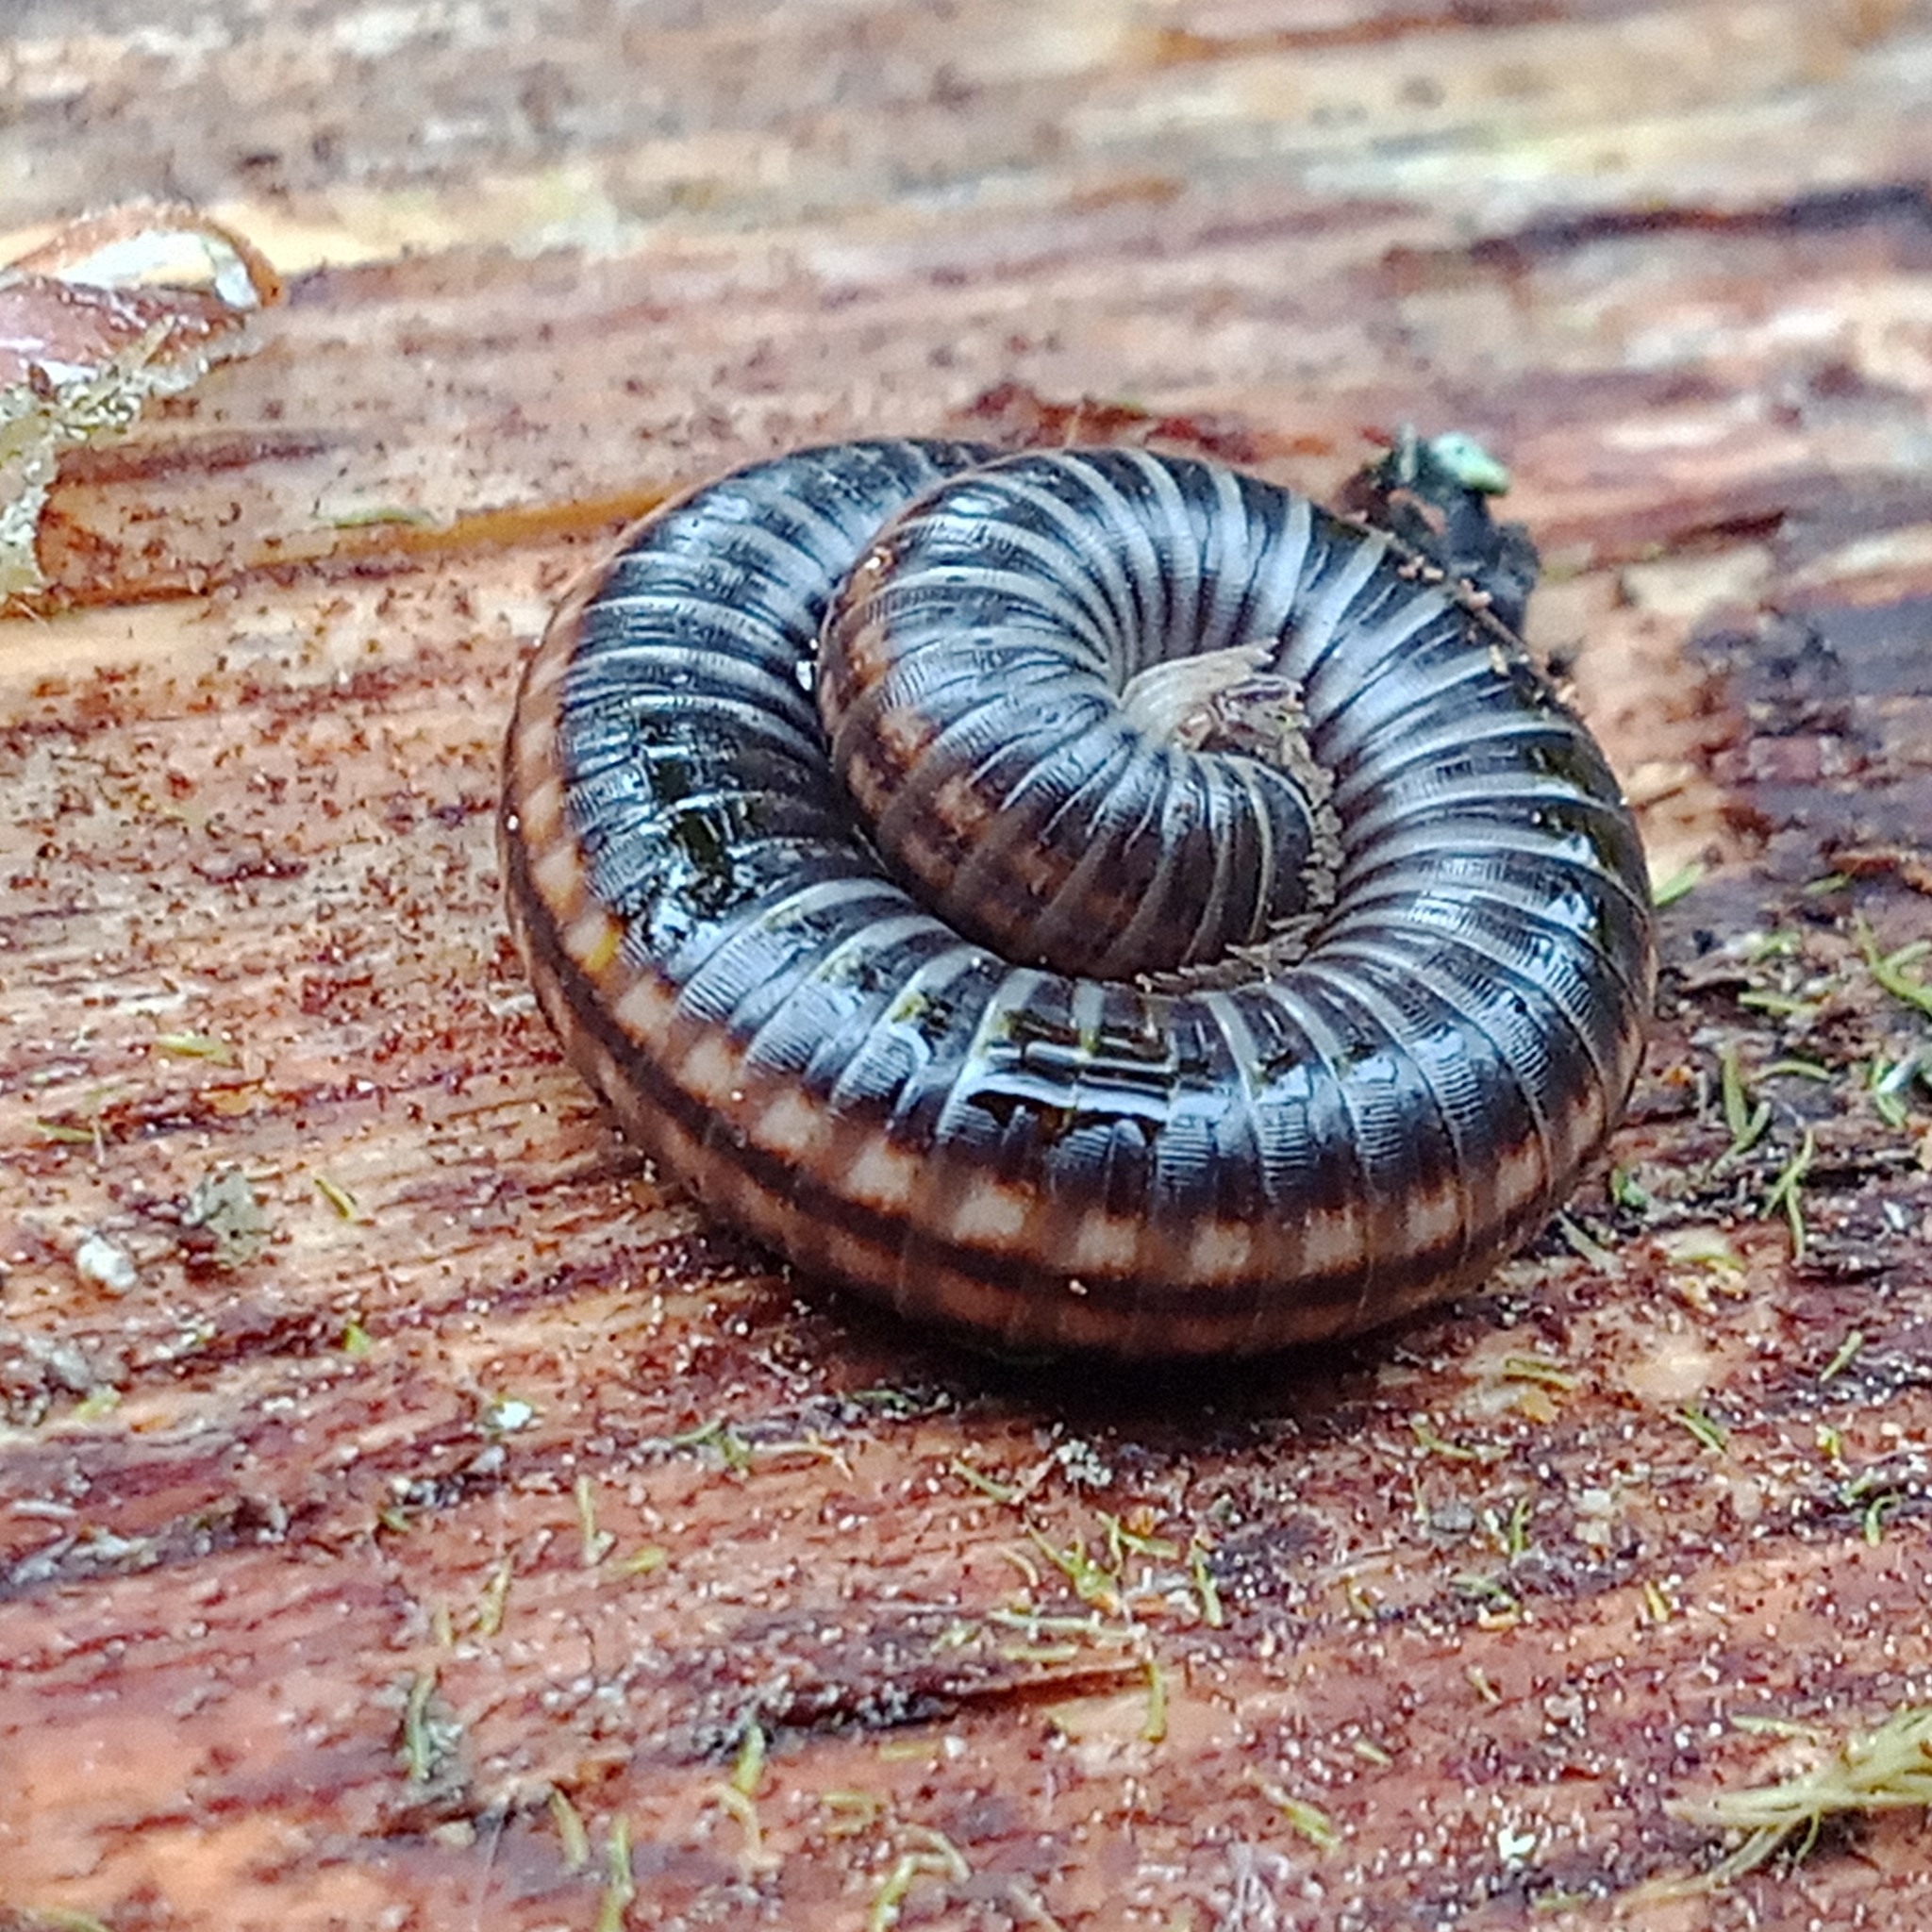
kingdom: Animalia
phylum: Arthropoda
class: Diplopoda
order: Julida
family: Julidae
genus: Ommatoiulus
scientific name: Ommatoiulus sabulosus
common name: Striped millipede
